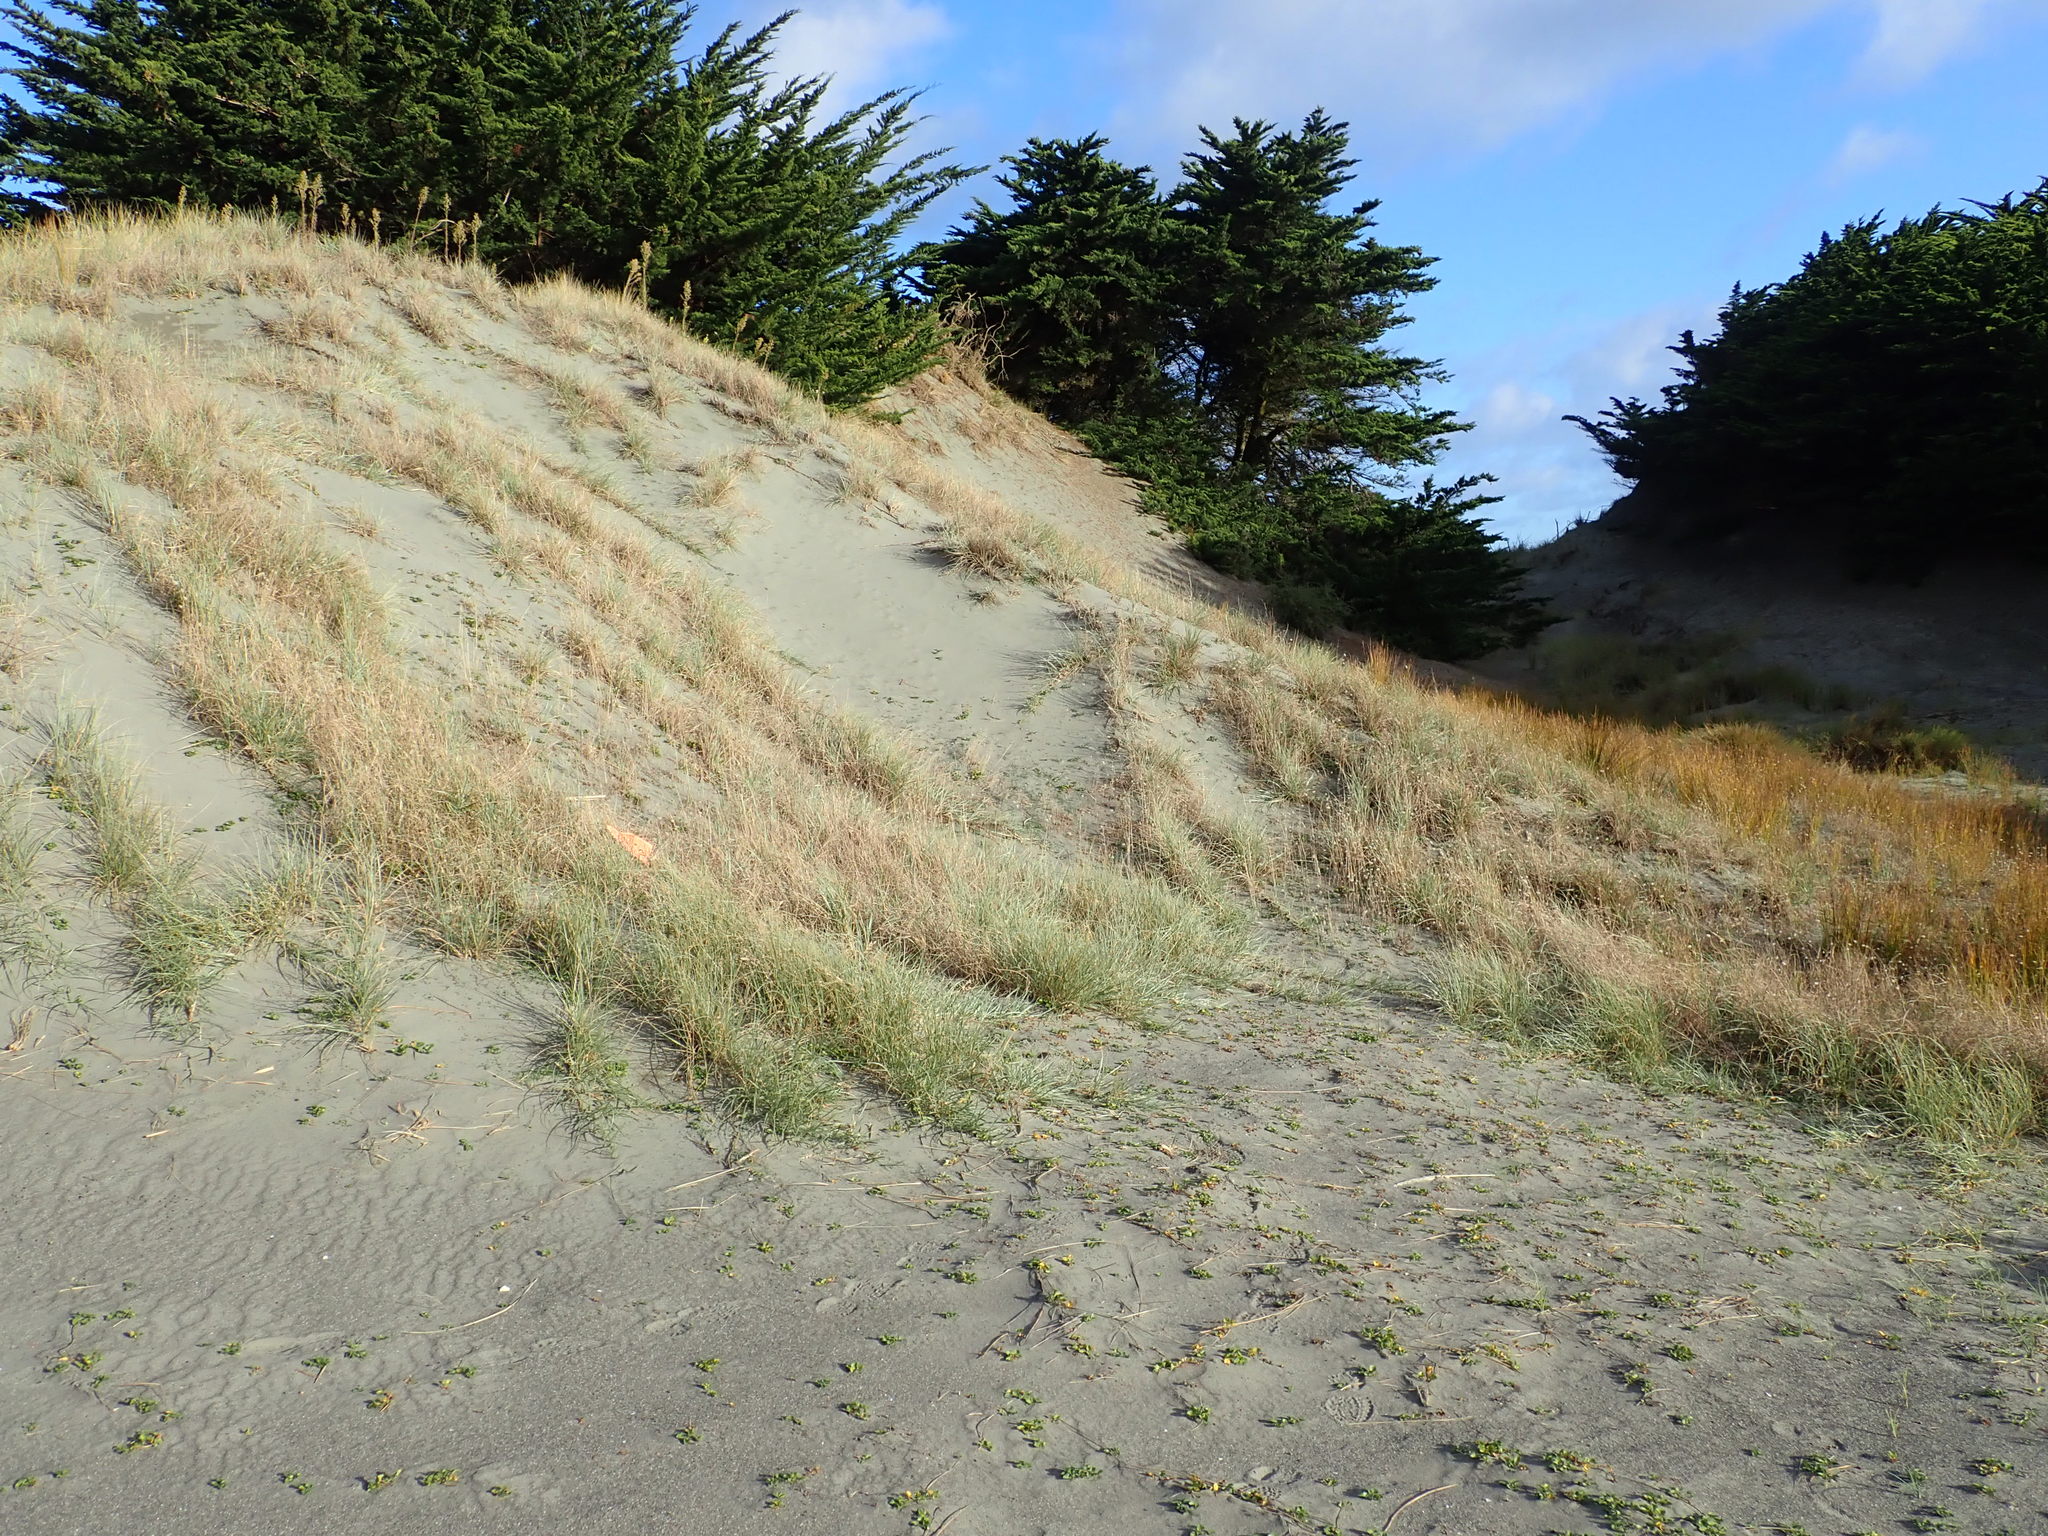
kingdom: Animalia
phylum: Mollusca
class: Gastropoda
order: Stylommatophora
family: Helicidae
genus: Cornu
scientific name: Cornu aspersum
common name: Brown garden snail
